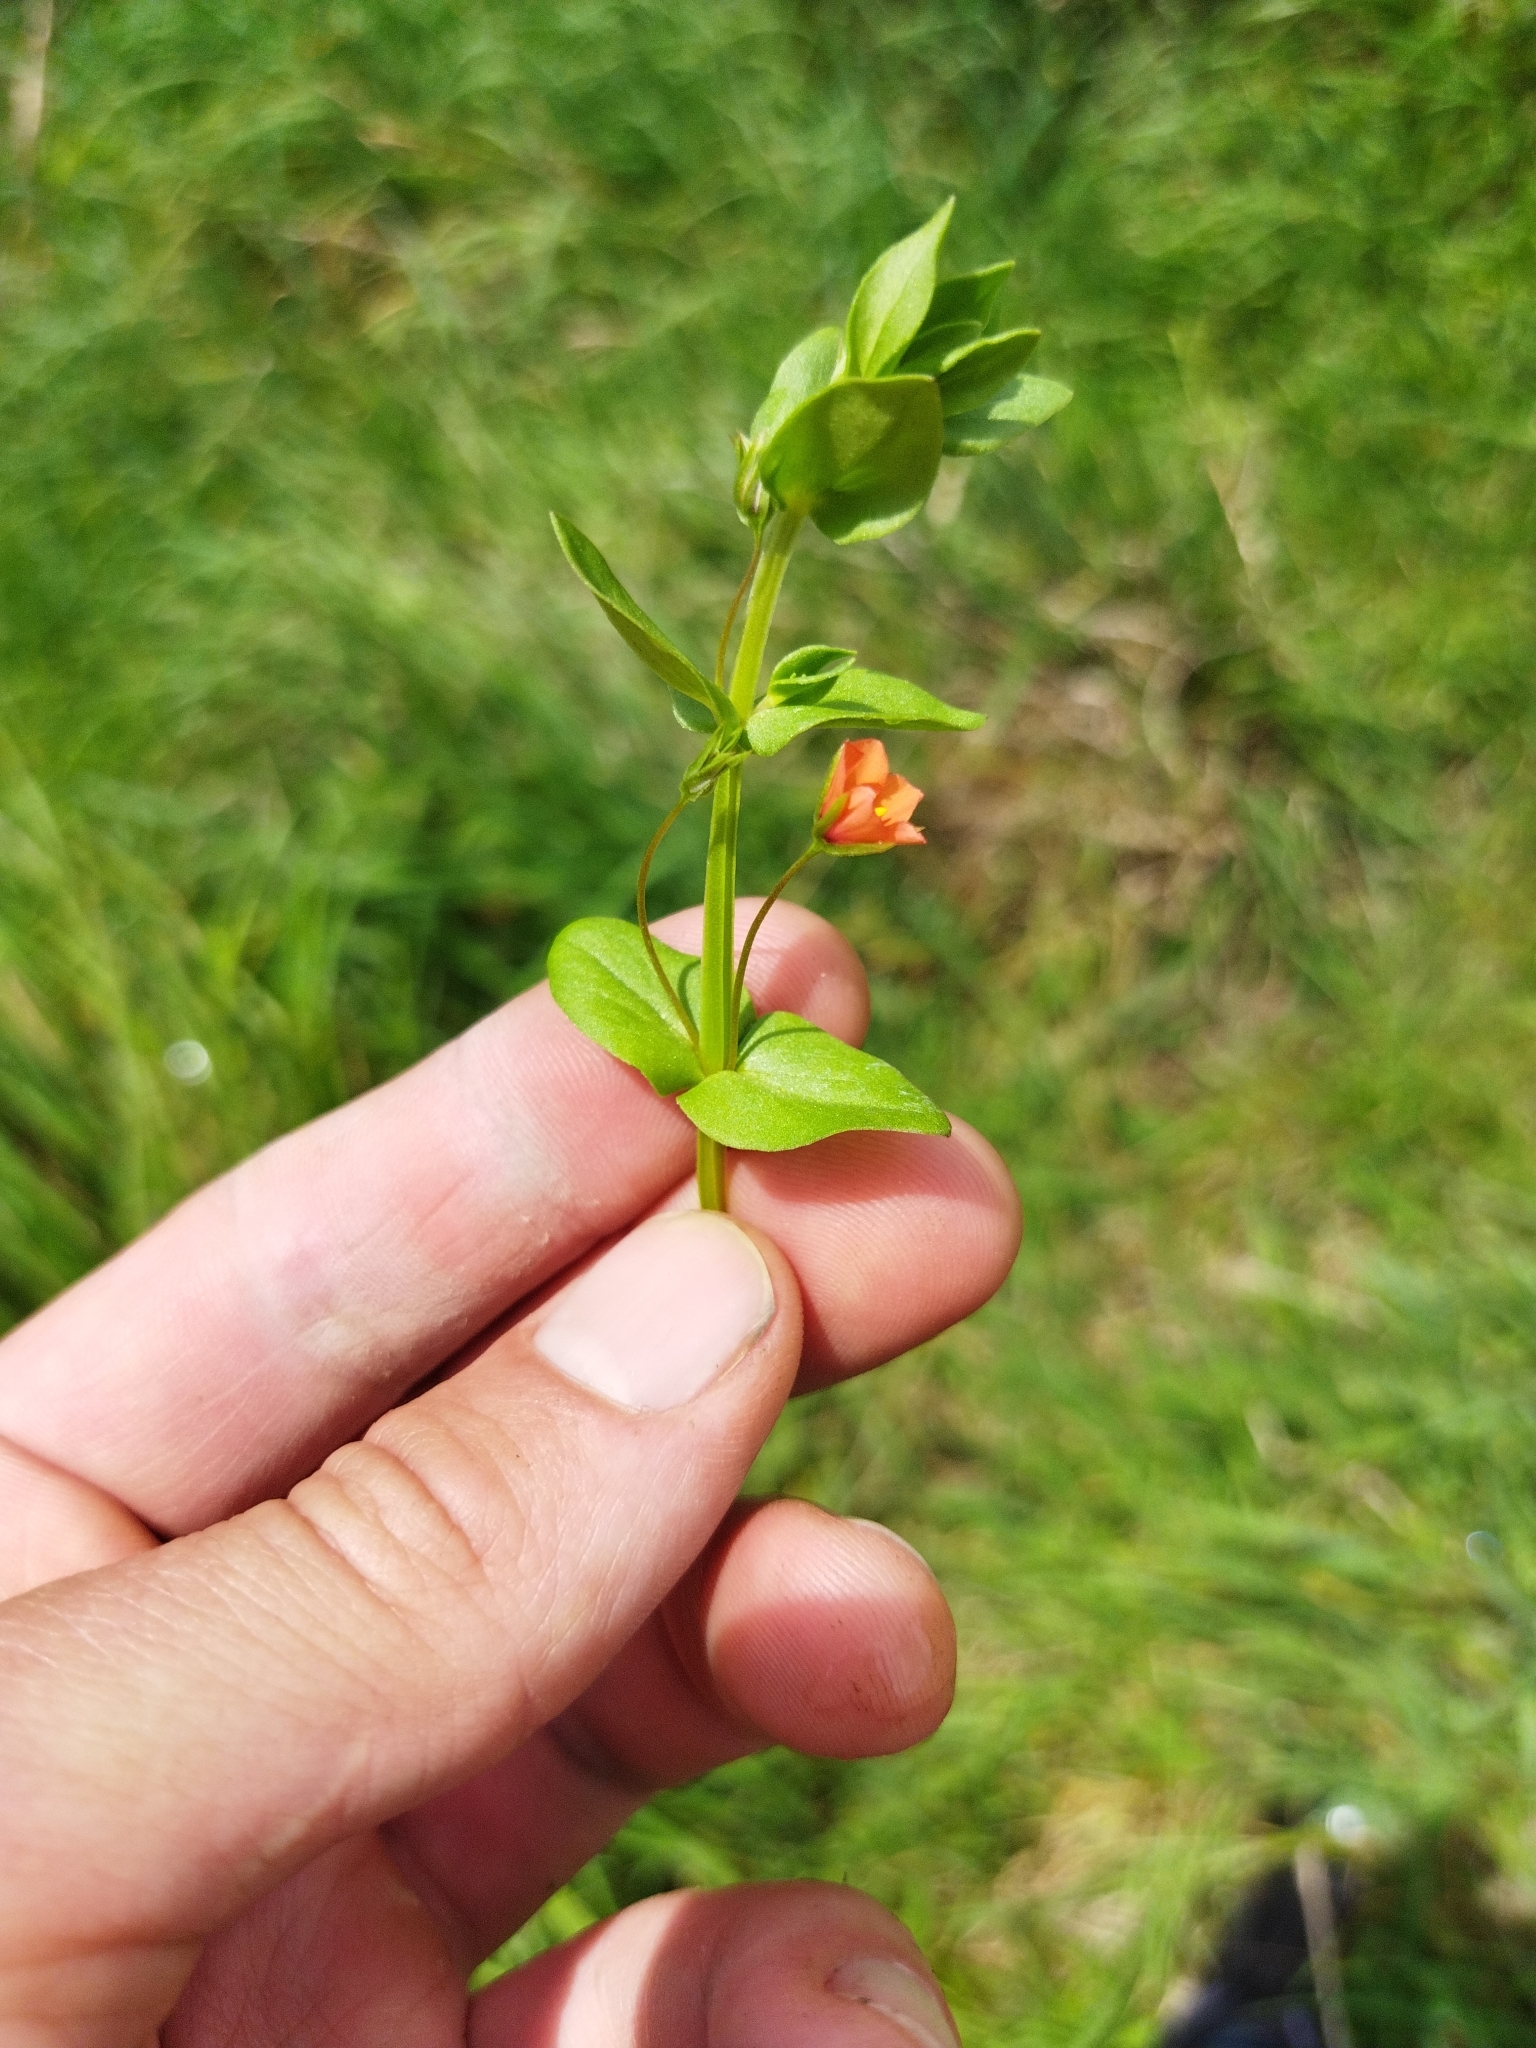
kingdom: Plantae
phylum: Tracheophyta
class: Magnoliopsida
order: Ericales
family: Primulaceae
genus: Lysimachia
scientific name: Lysimachia arvensis
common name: Scarlet pimpernel
